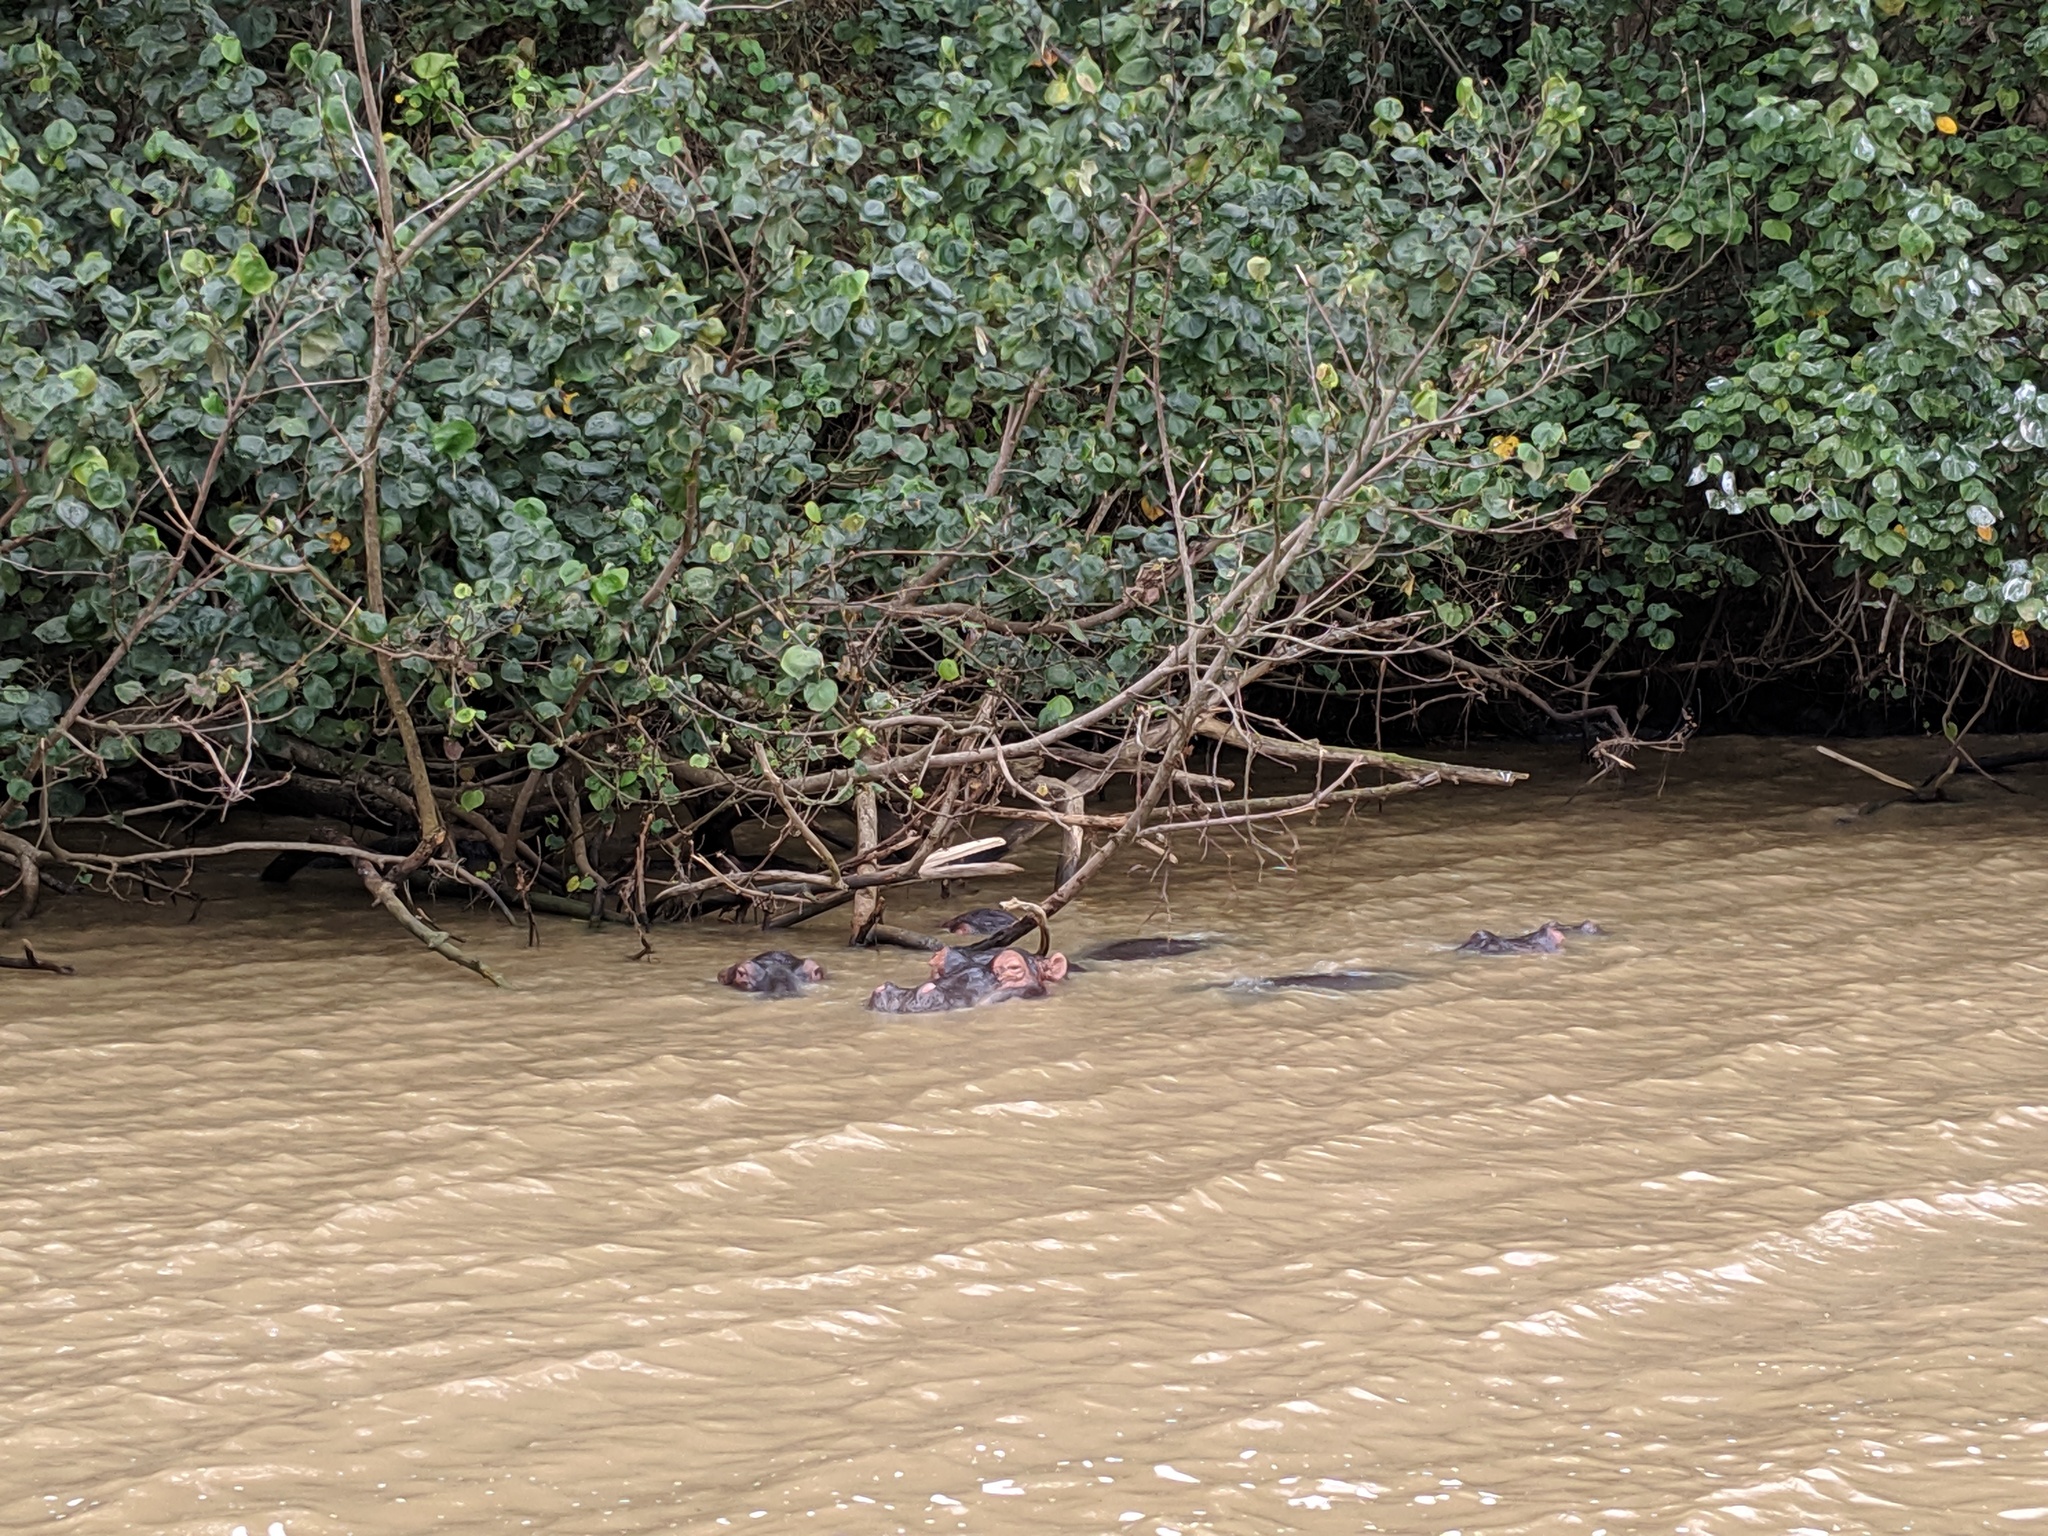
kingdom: Animalia
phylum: Chordata
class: Mammalia
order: Artiodactyla
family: Hippopotamidae
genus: Hippopotamus
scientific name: Hippopotamus amphibius
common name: Common hippopotamus
